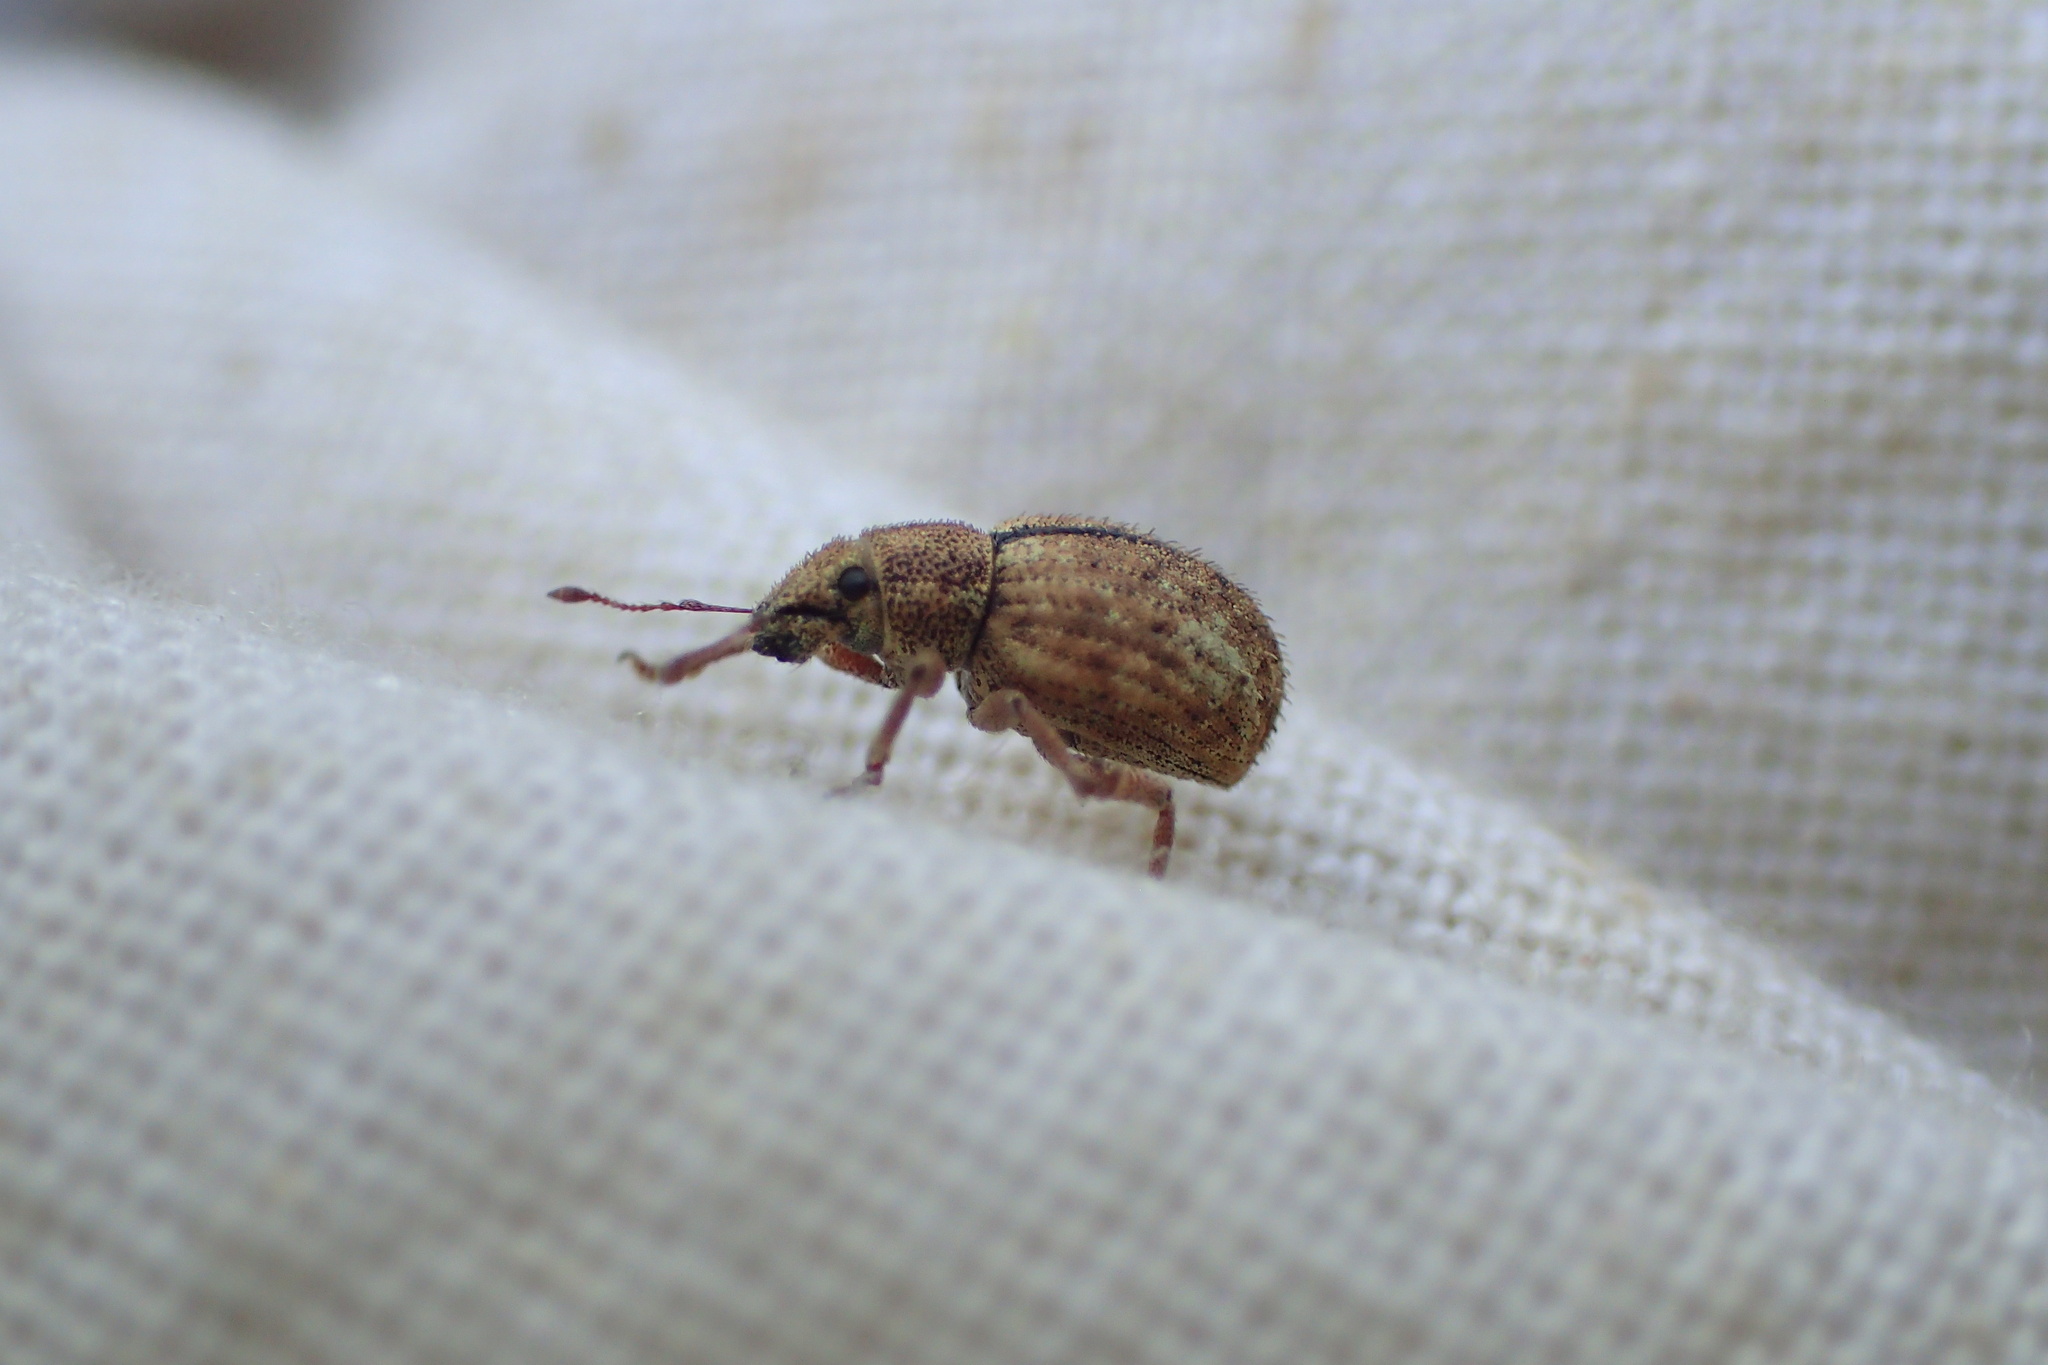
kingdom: Animalia
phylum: Arthropoda
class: Insecta
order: Coleoptera
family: Curculionidae
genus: Strophosoma
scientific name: Strophosoma melanogrammum
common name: Weevil
